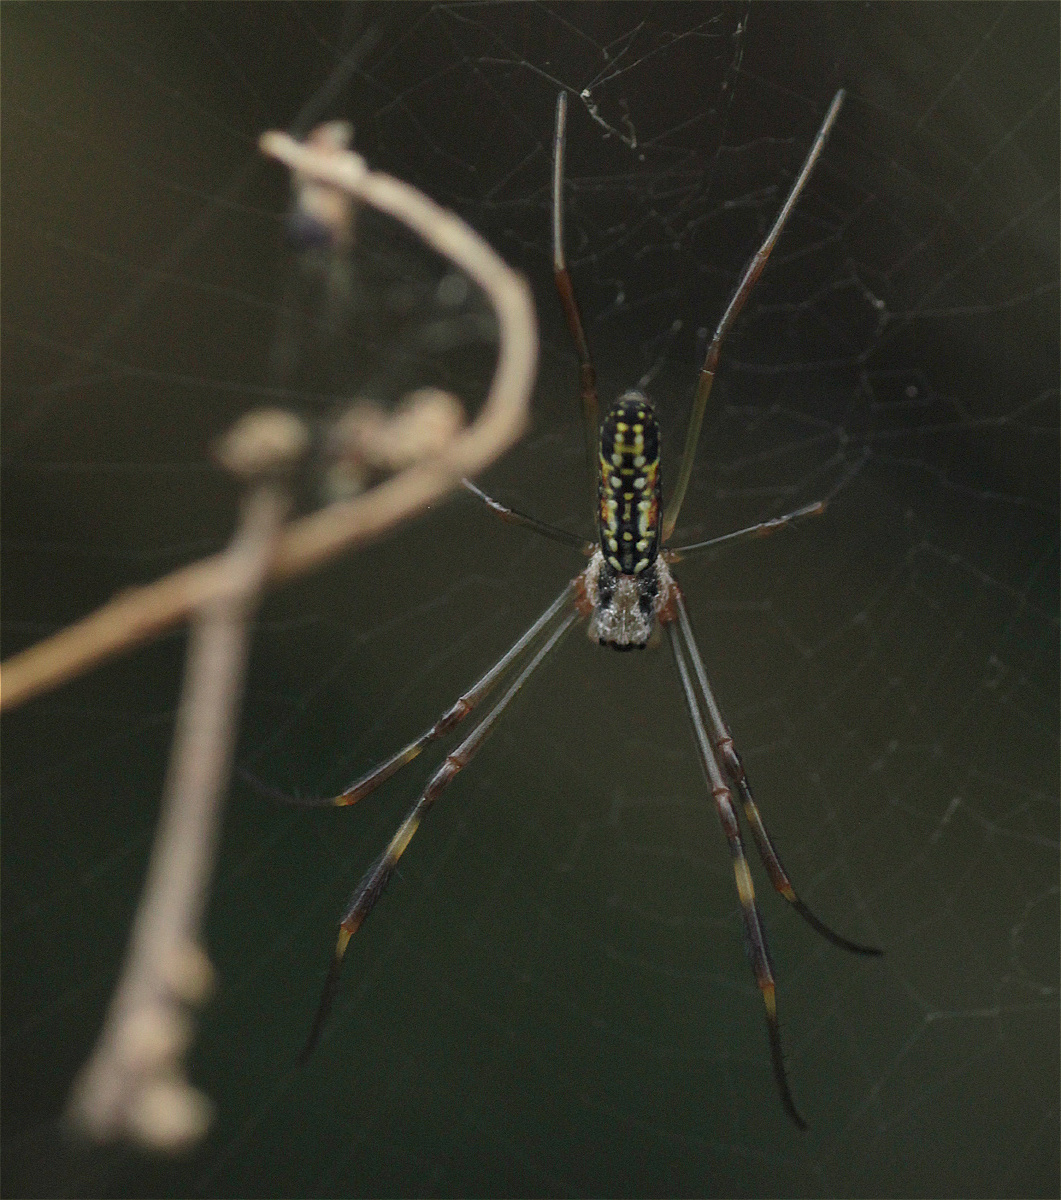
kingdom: Animalia
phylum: Arthropoda
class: Arachnida
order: Araneae
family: Araneidae
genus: Trichonephila
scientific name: Trichonephila clavipes
